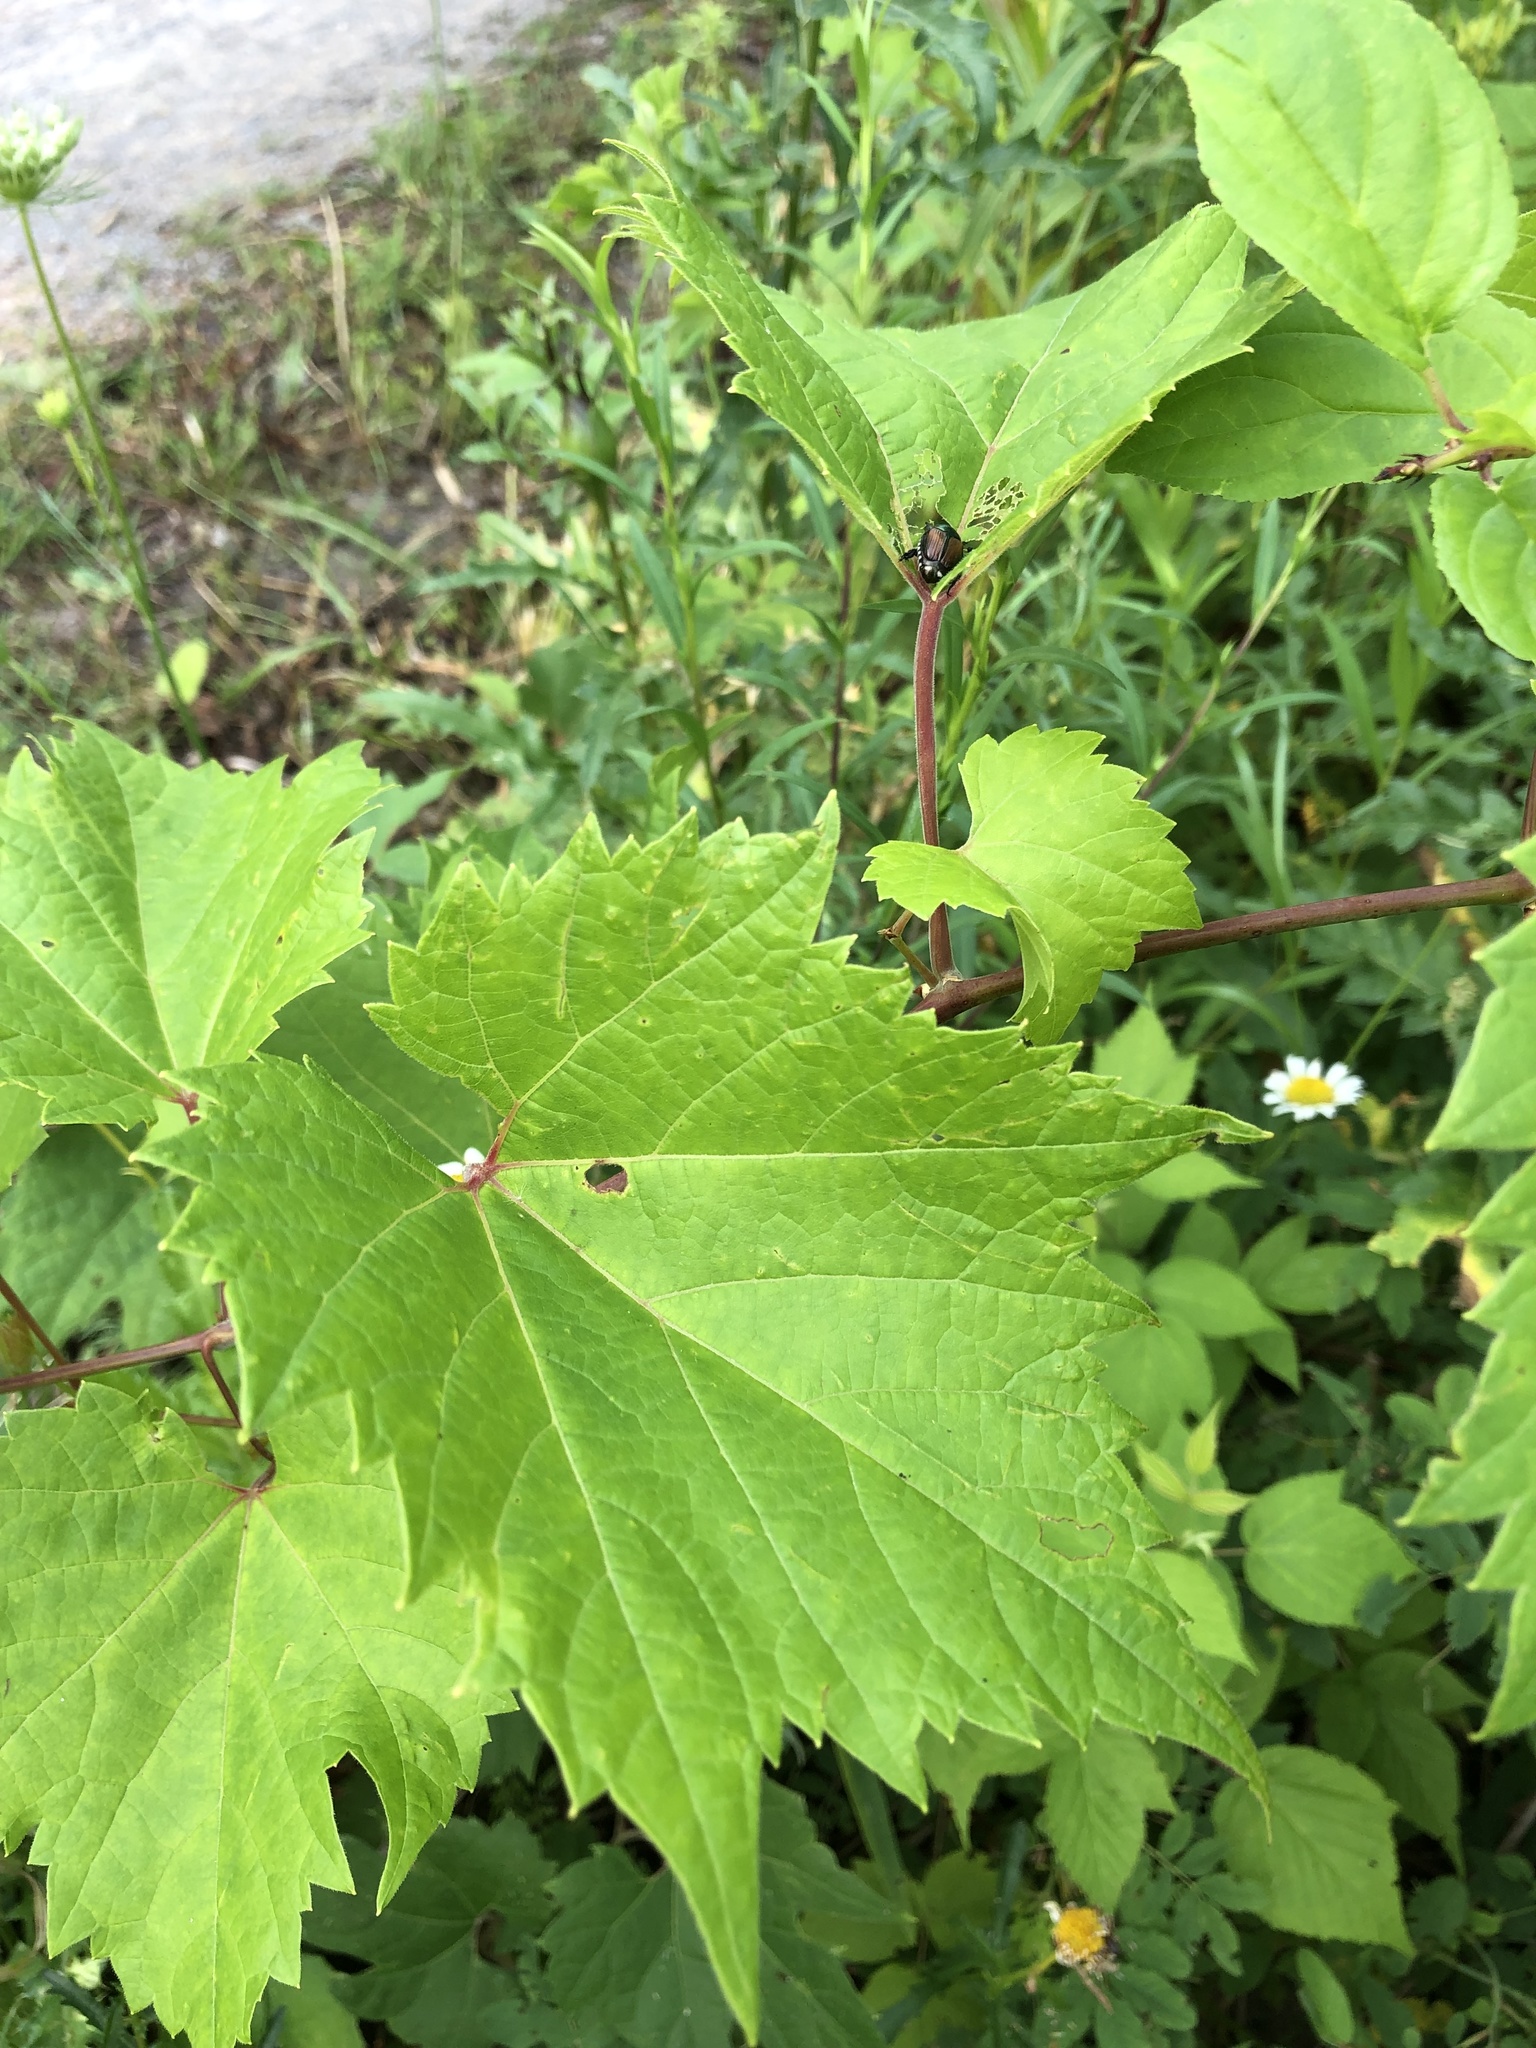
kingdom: Plantae
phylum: Tracheophyta
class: Magnoliopsida
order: Vitales
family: Vitaceae
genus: Vitis
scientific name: Vitis riparia
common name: Frost grape
